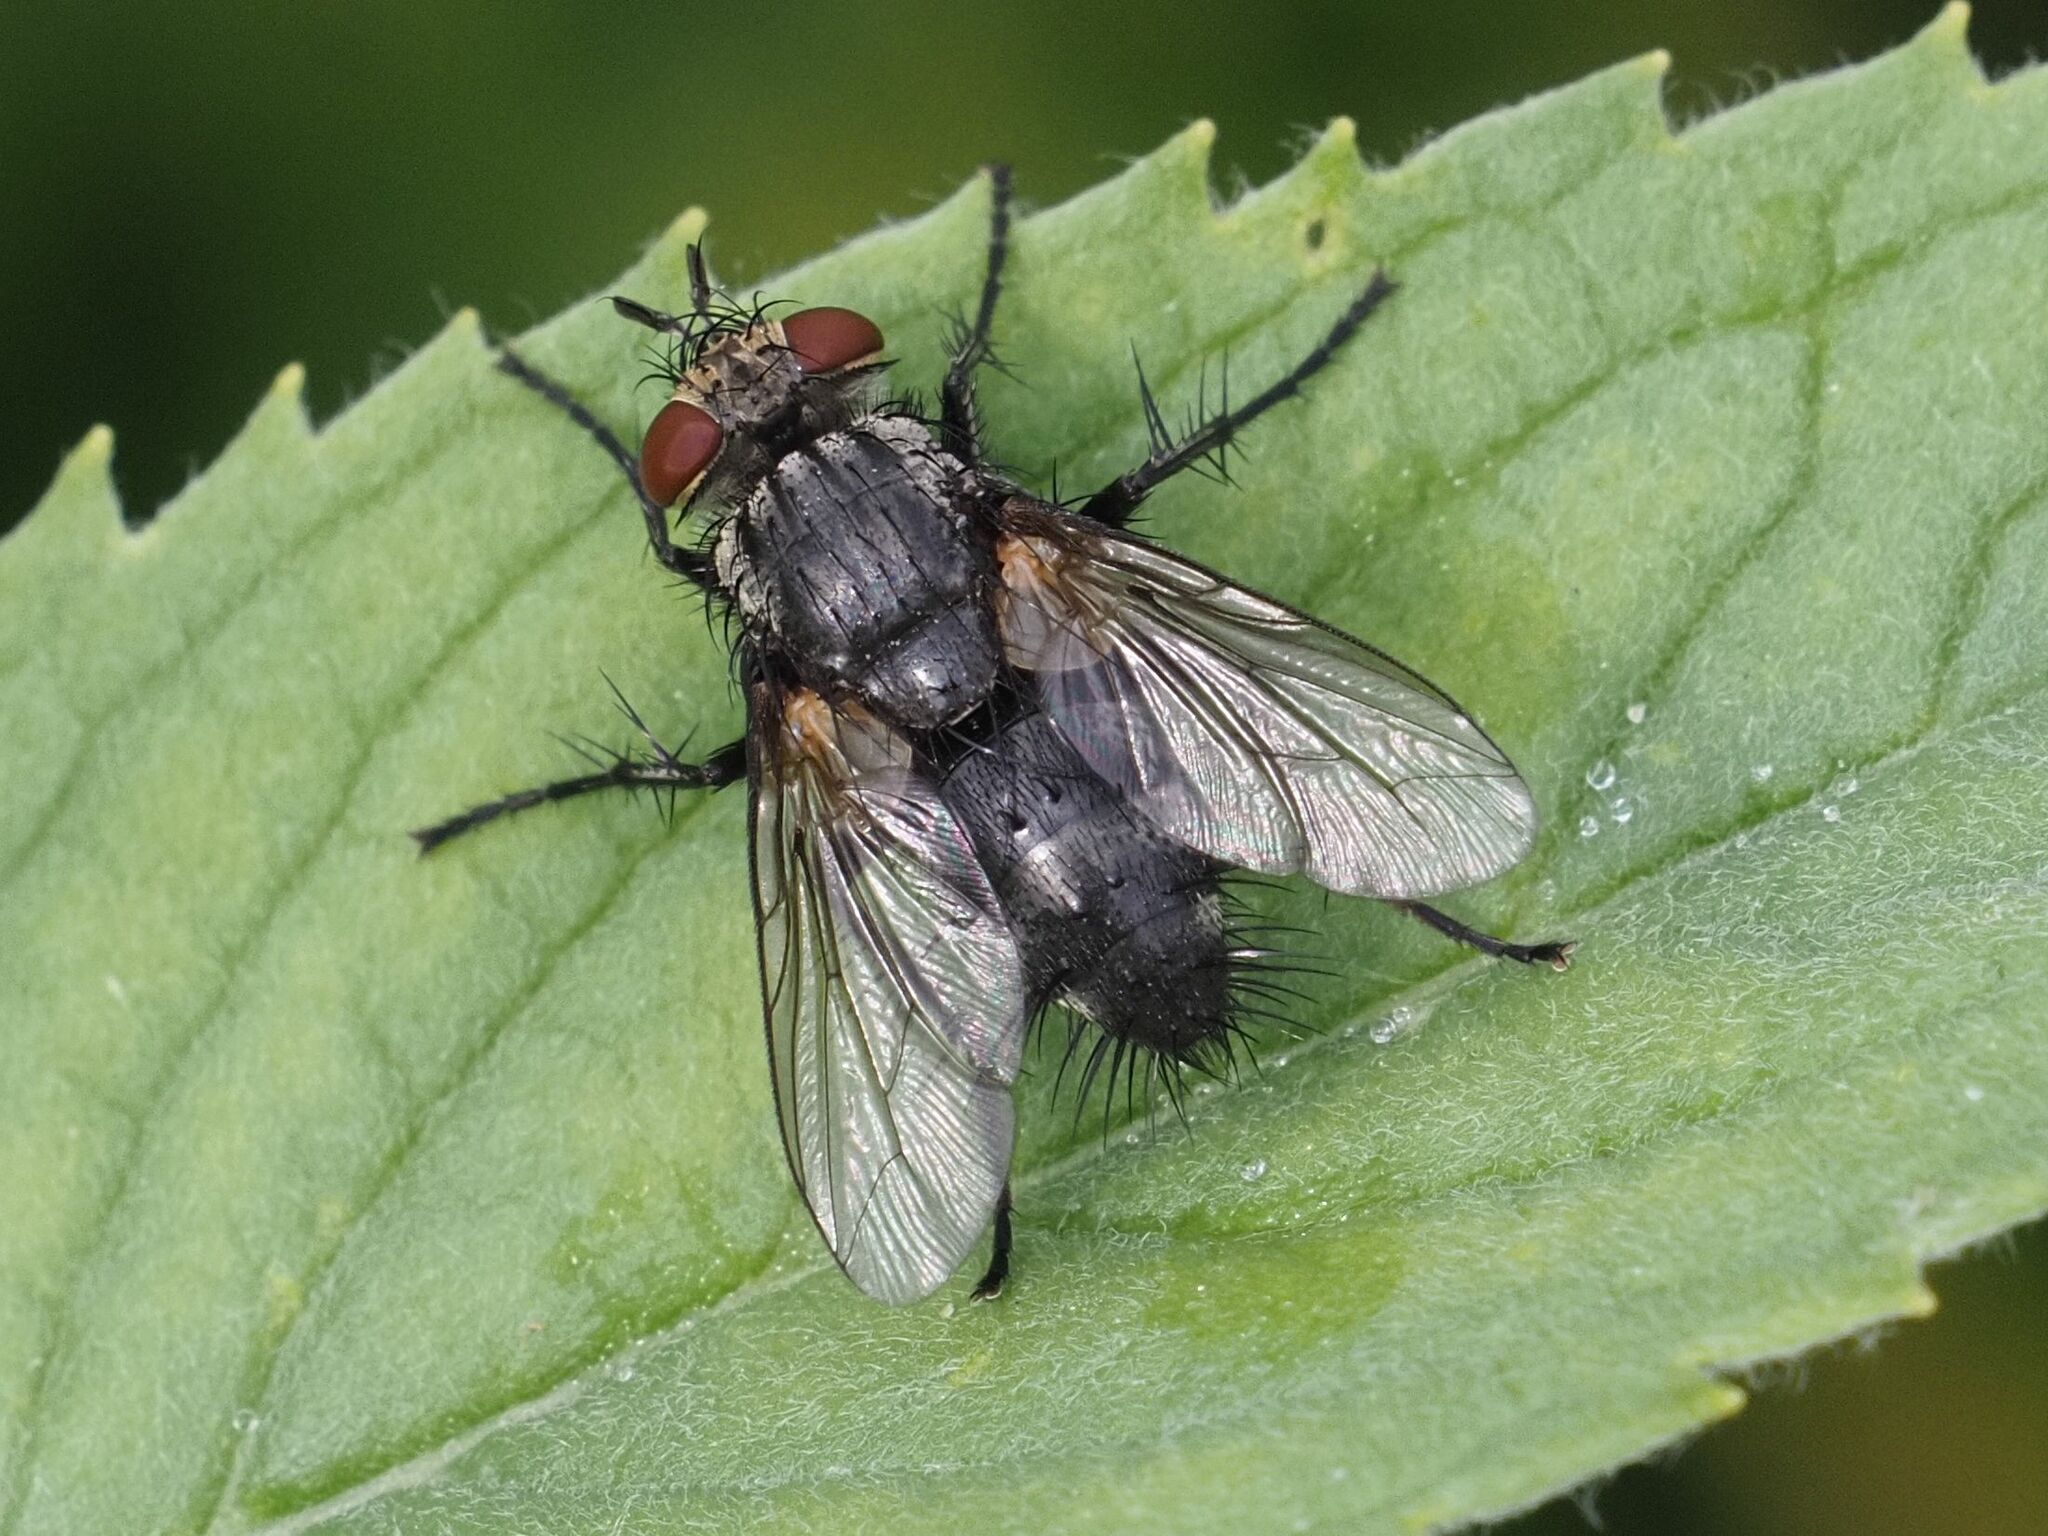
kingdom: Animalia
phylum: Arthropoda
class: Insecta
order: Diptera
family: Tachinidae
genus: Voria
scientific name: Voria ruralis
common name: Parasitic fly
